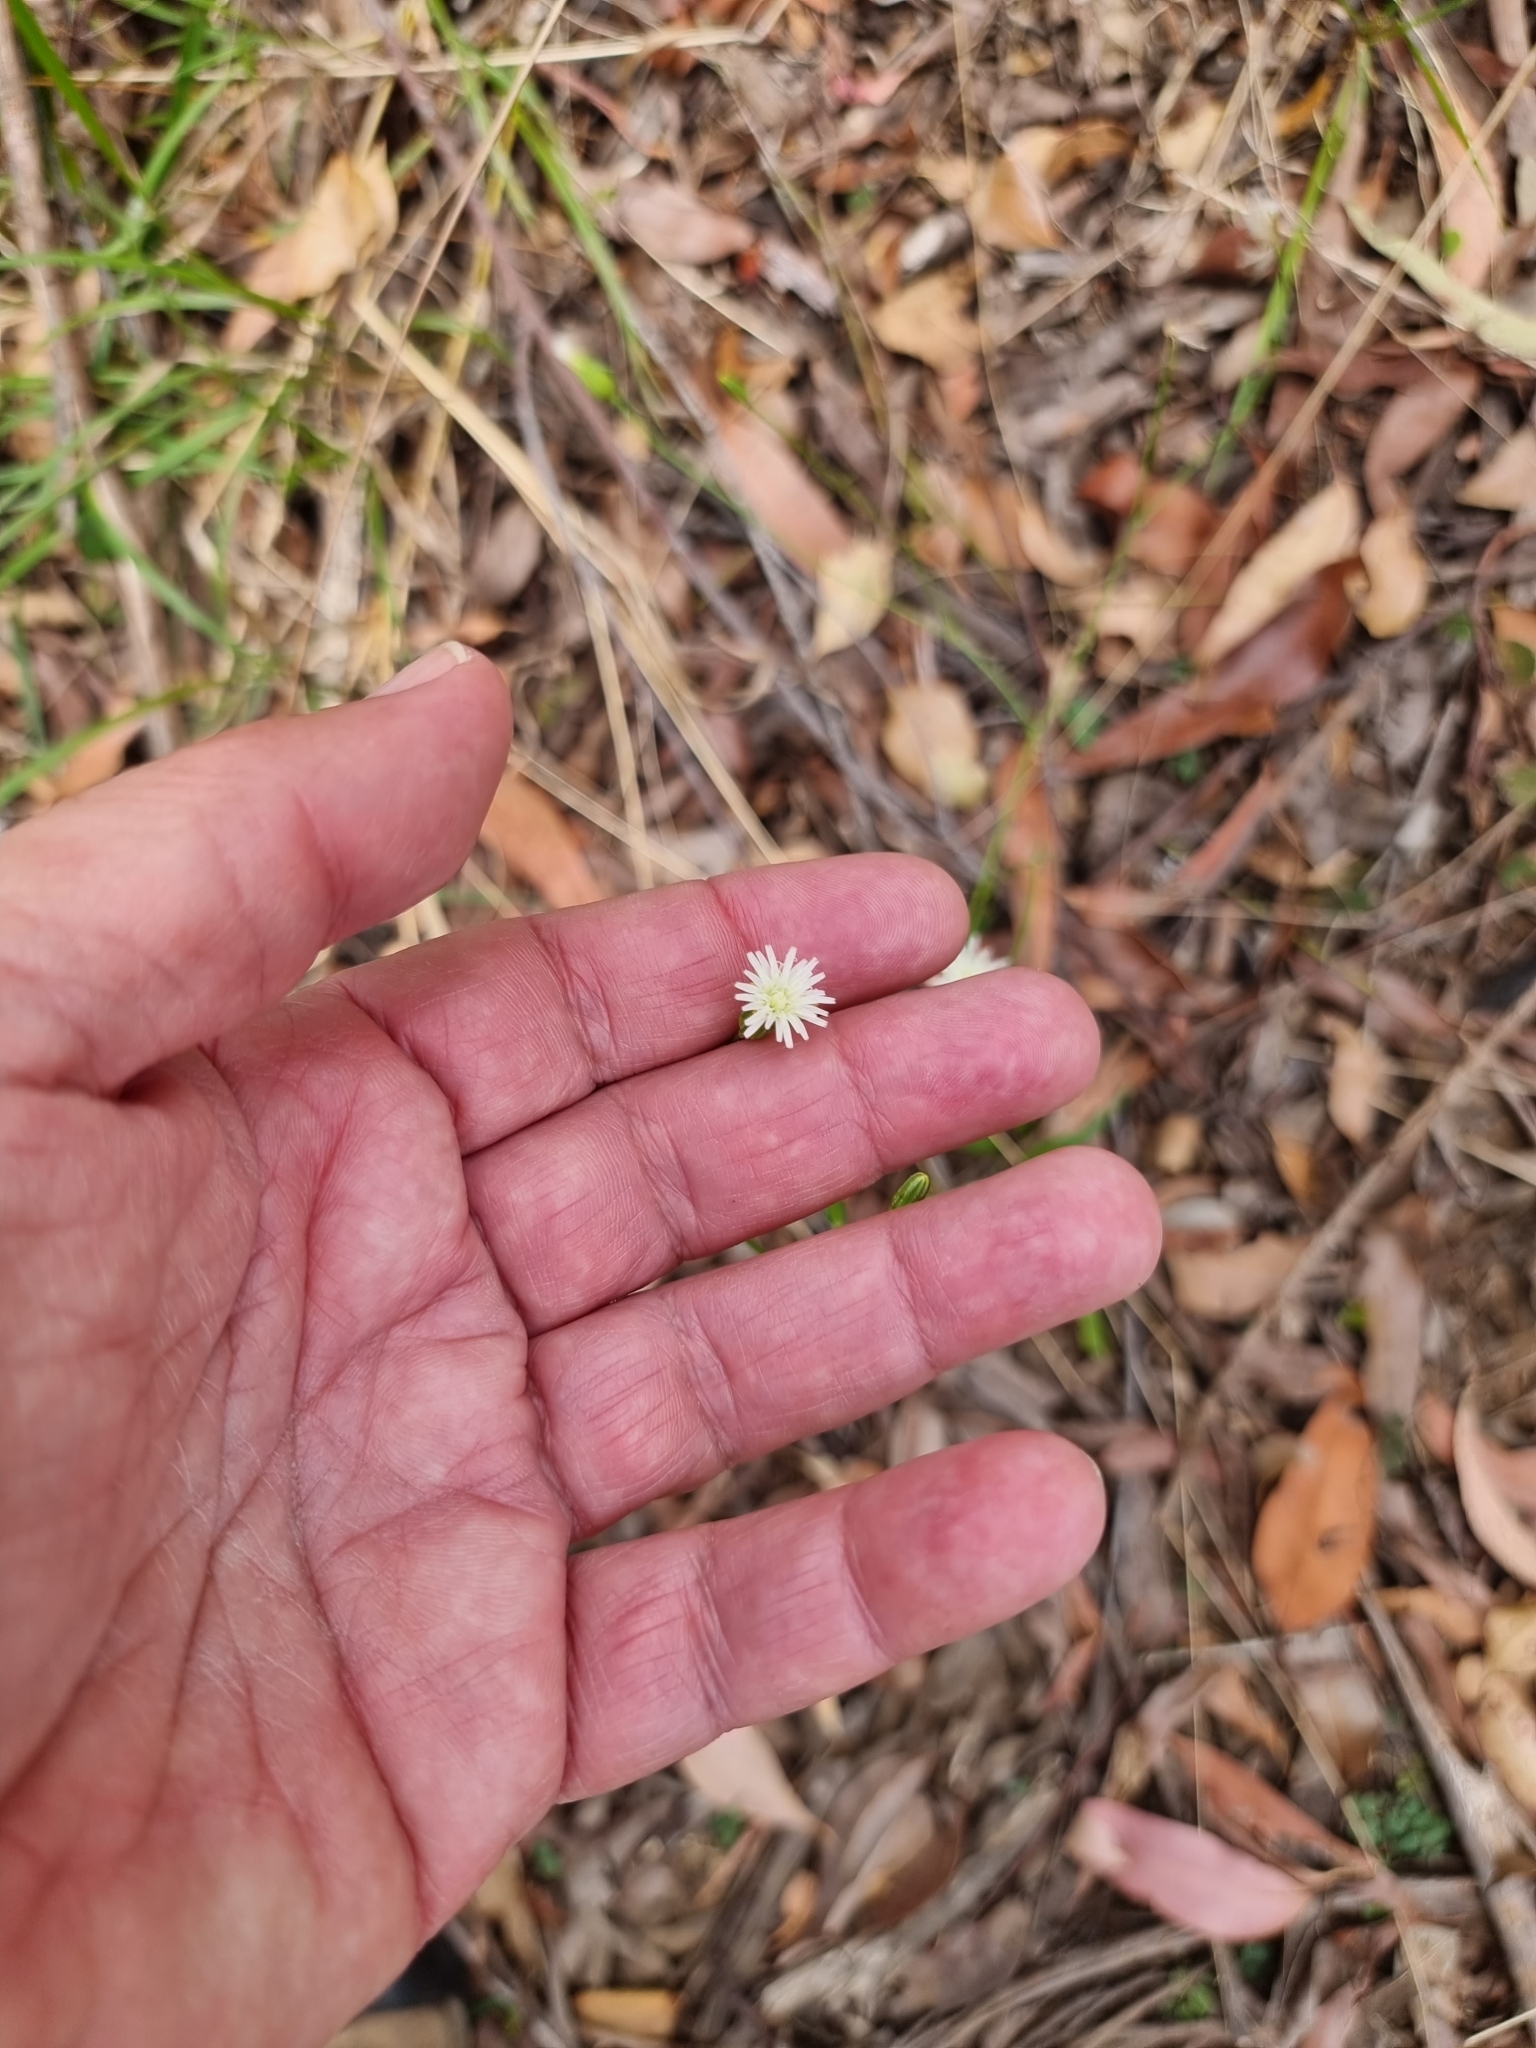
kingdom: Plantae
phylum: Tracheophyta
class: Magnoliopsida
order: Asterales
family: Asteraceae
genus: Hypochaeris
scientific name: Hypochaeris albiflora
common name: White flatweed
